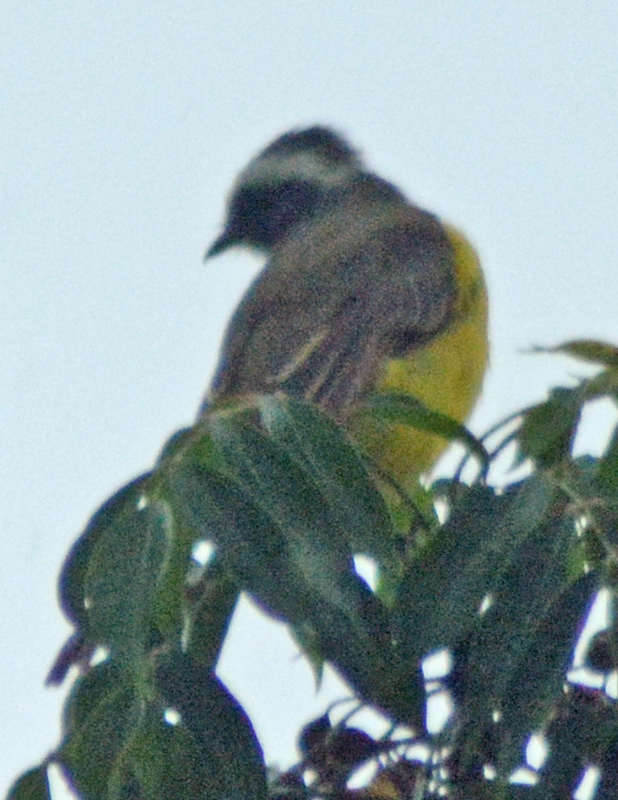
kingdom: Animalia
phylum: Chordata
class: Aves
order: Passeriformes
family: Tyrannidae
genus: Myiozetetes
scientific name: Myiozetetes similis
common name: Social flycatcher
